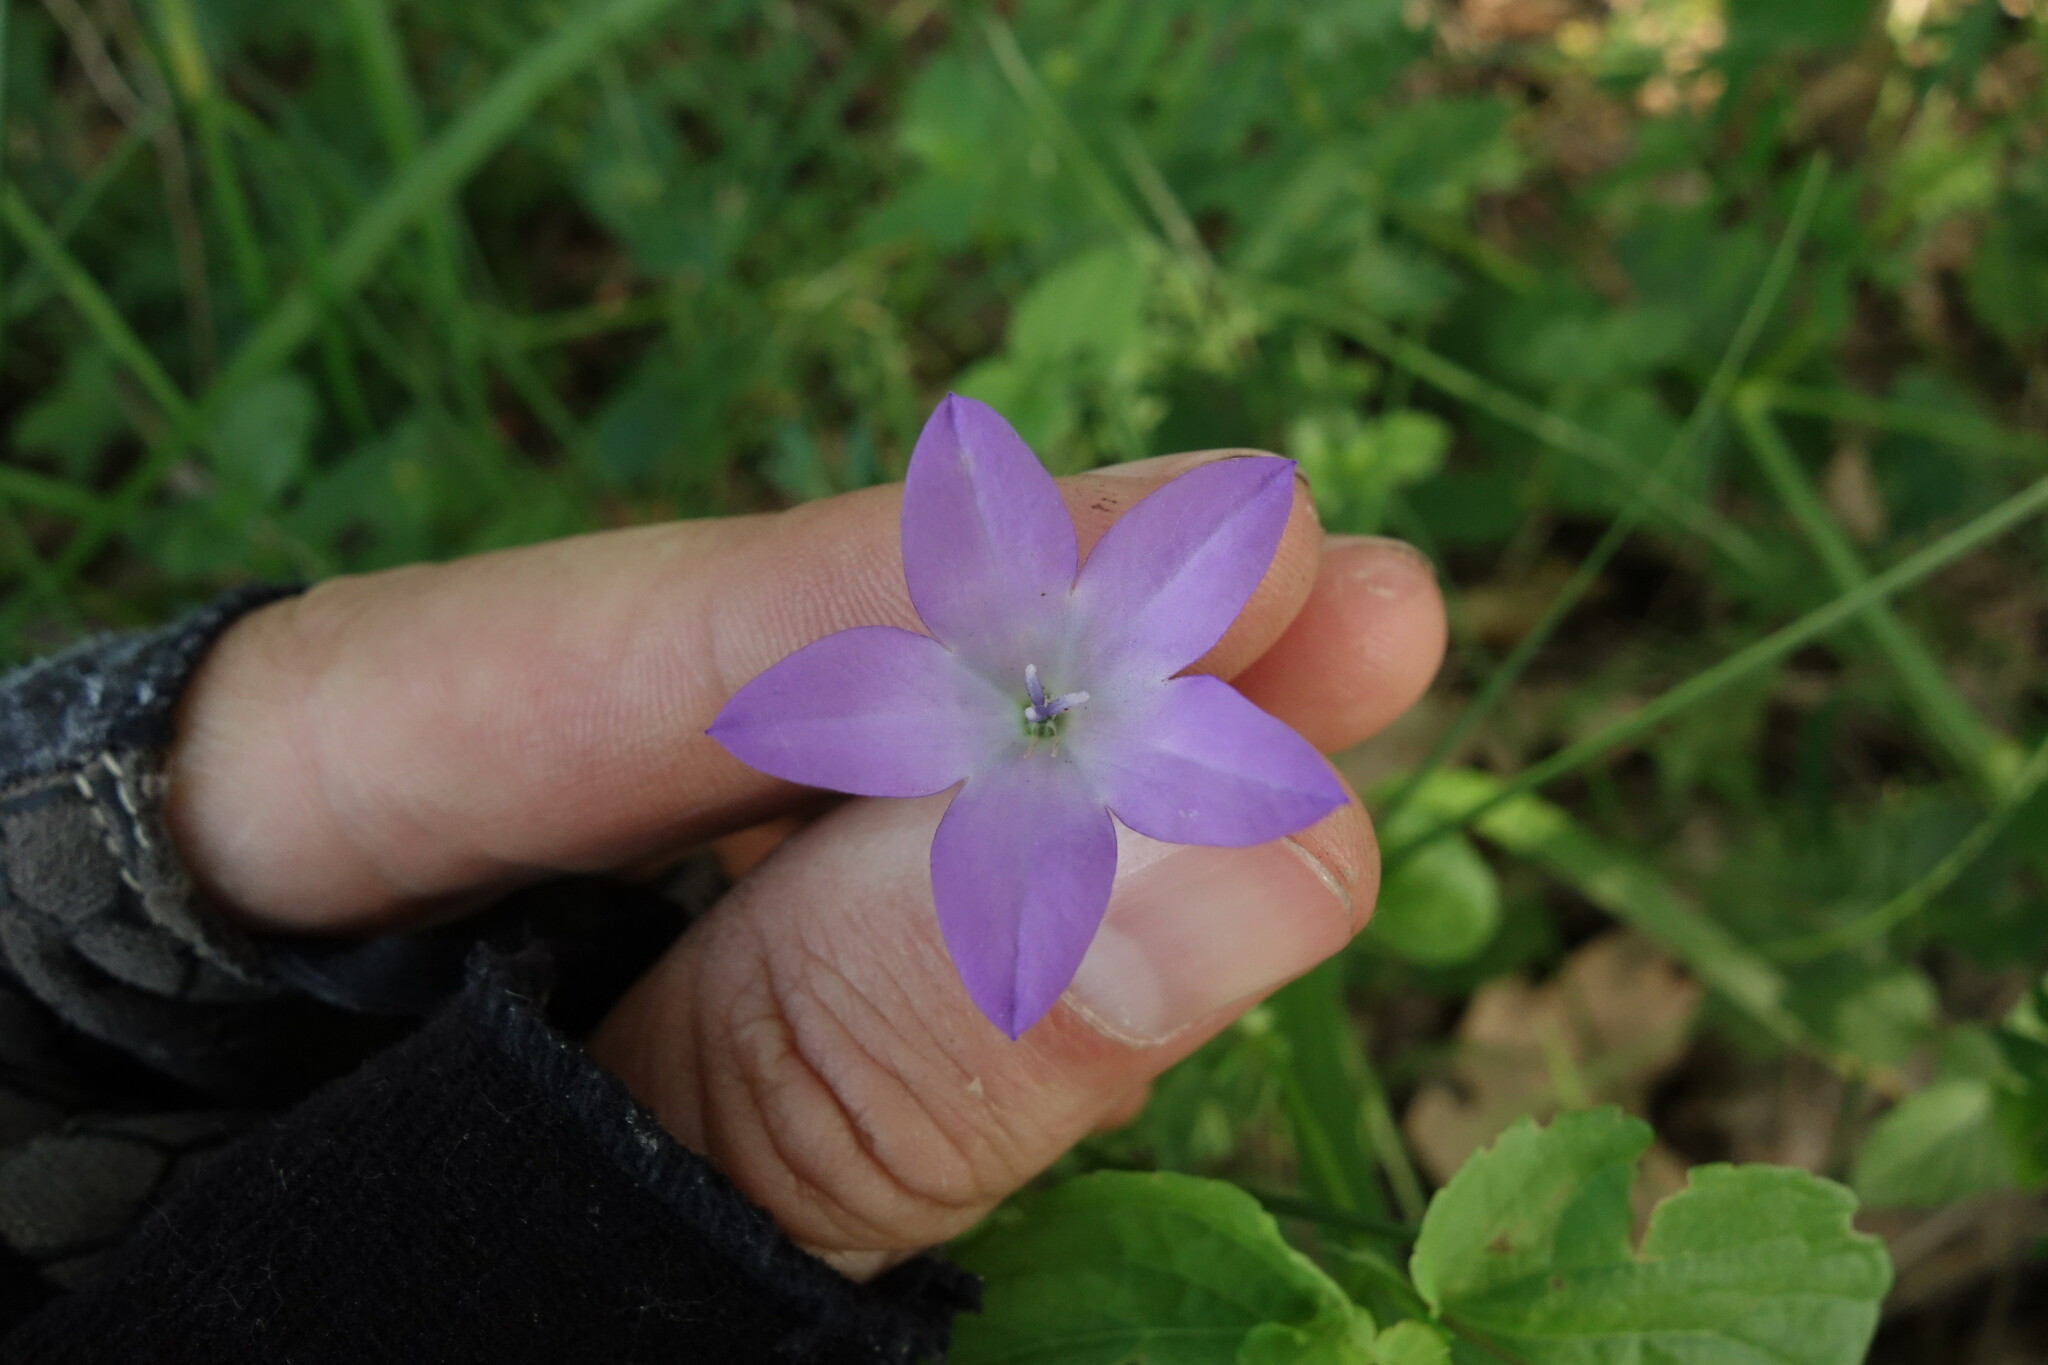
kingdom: Plantae
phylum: Tracheophyta
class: Magnoliopsida
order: Asterales
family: Campanulaceae
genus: Campanula
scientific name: Campanula stevenii
